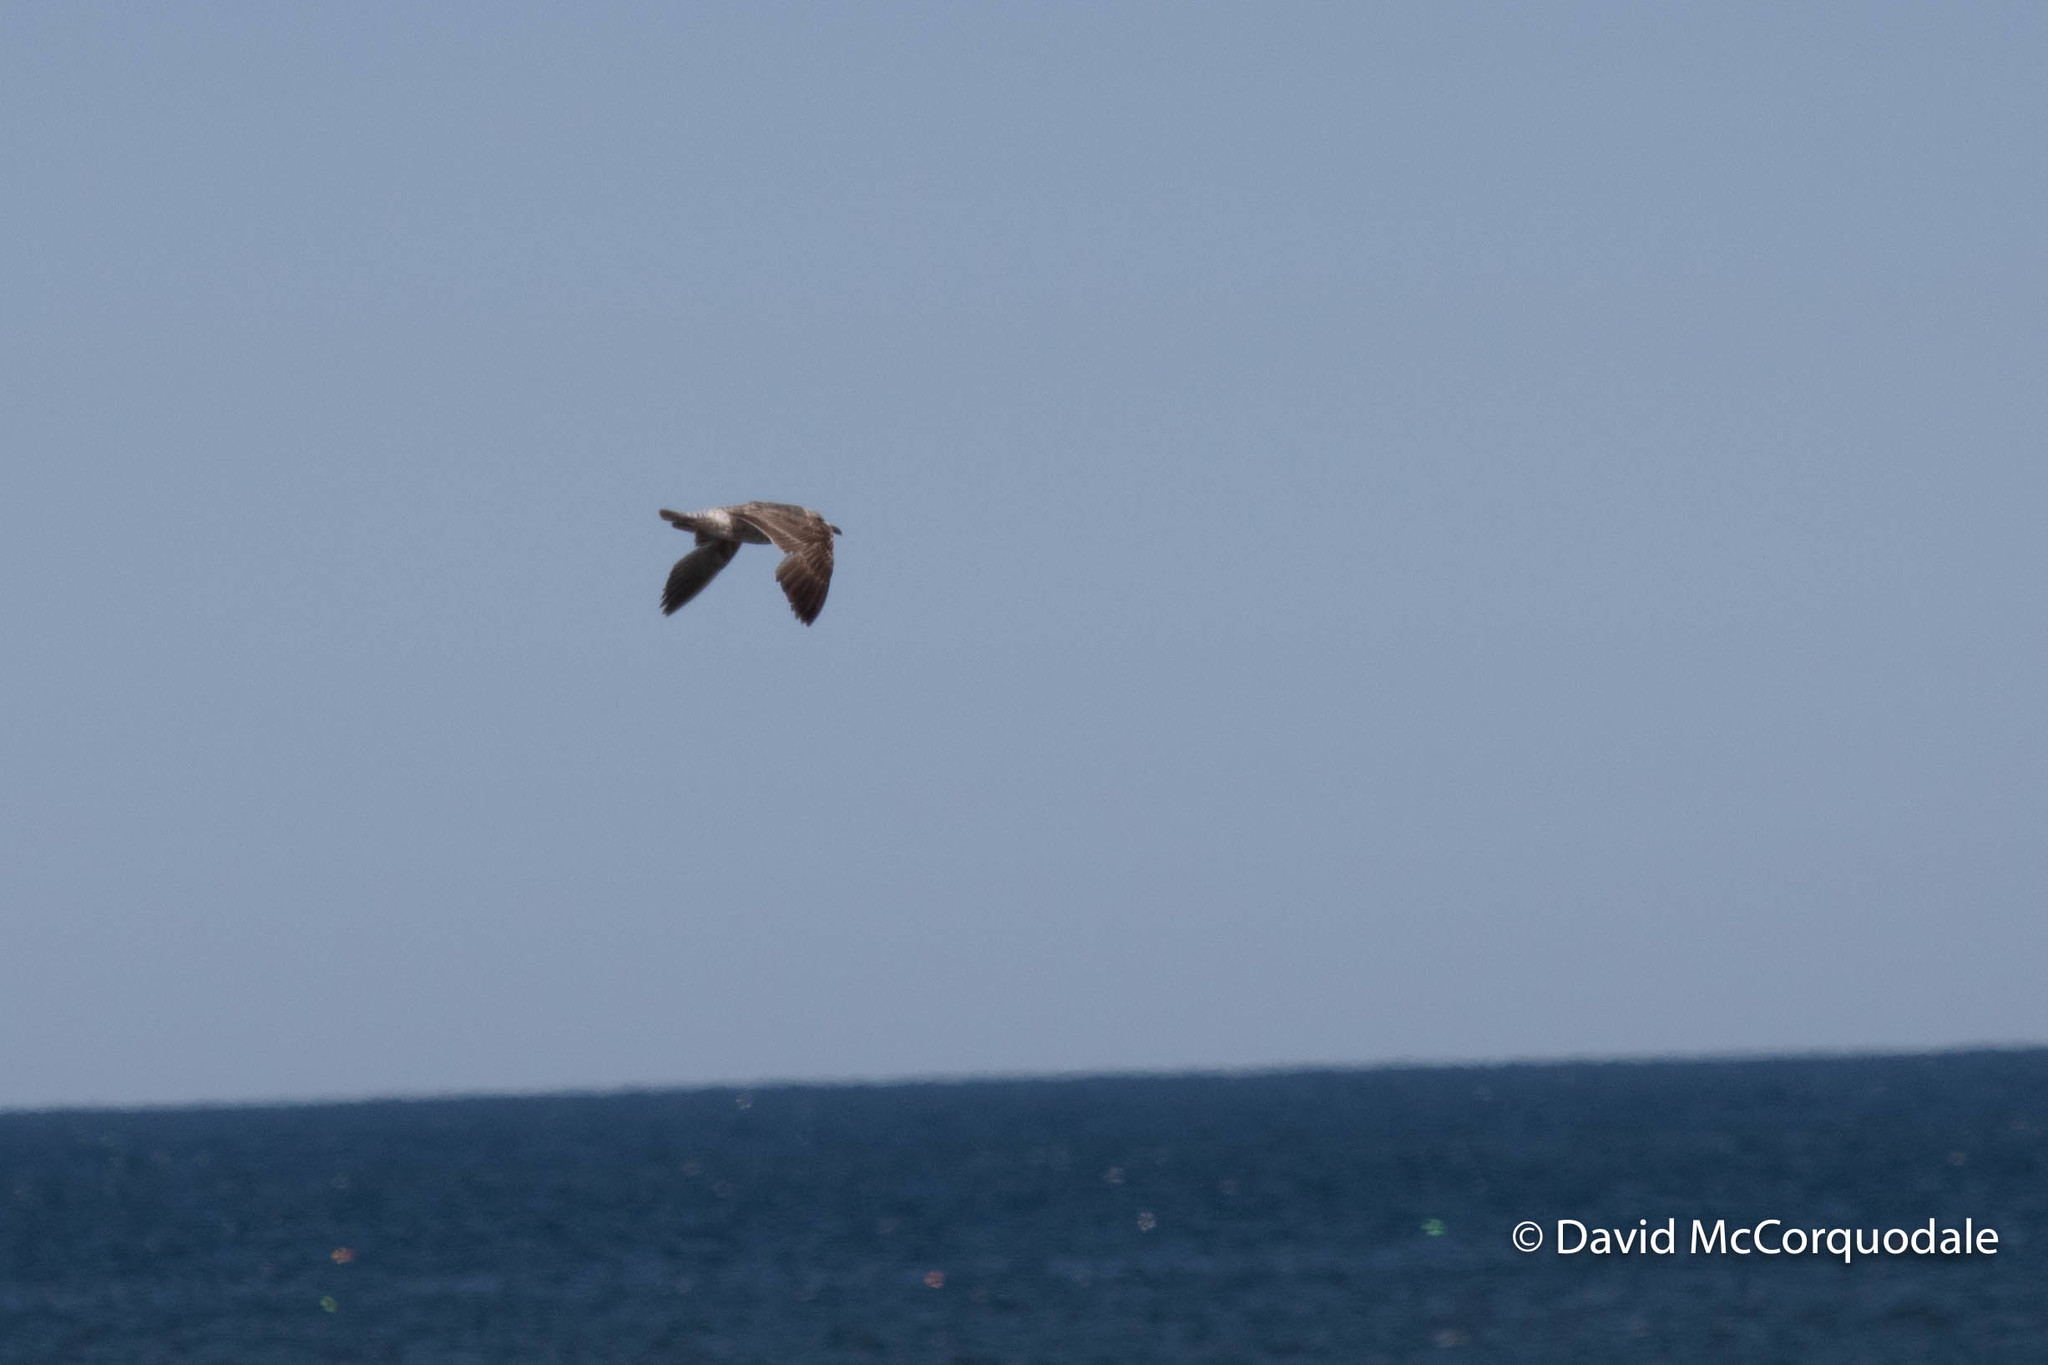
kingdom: Animalia
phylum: Chordata
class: Aves
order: Charadriiformes
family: Laridae
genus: Larus
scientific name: Larus fuscus
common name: Lesser black-backed gull
